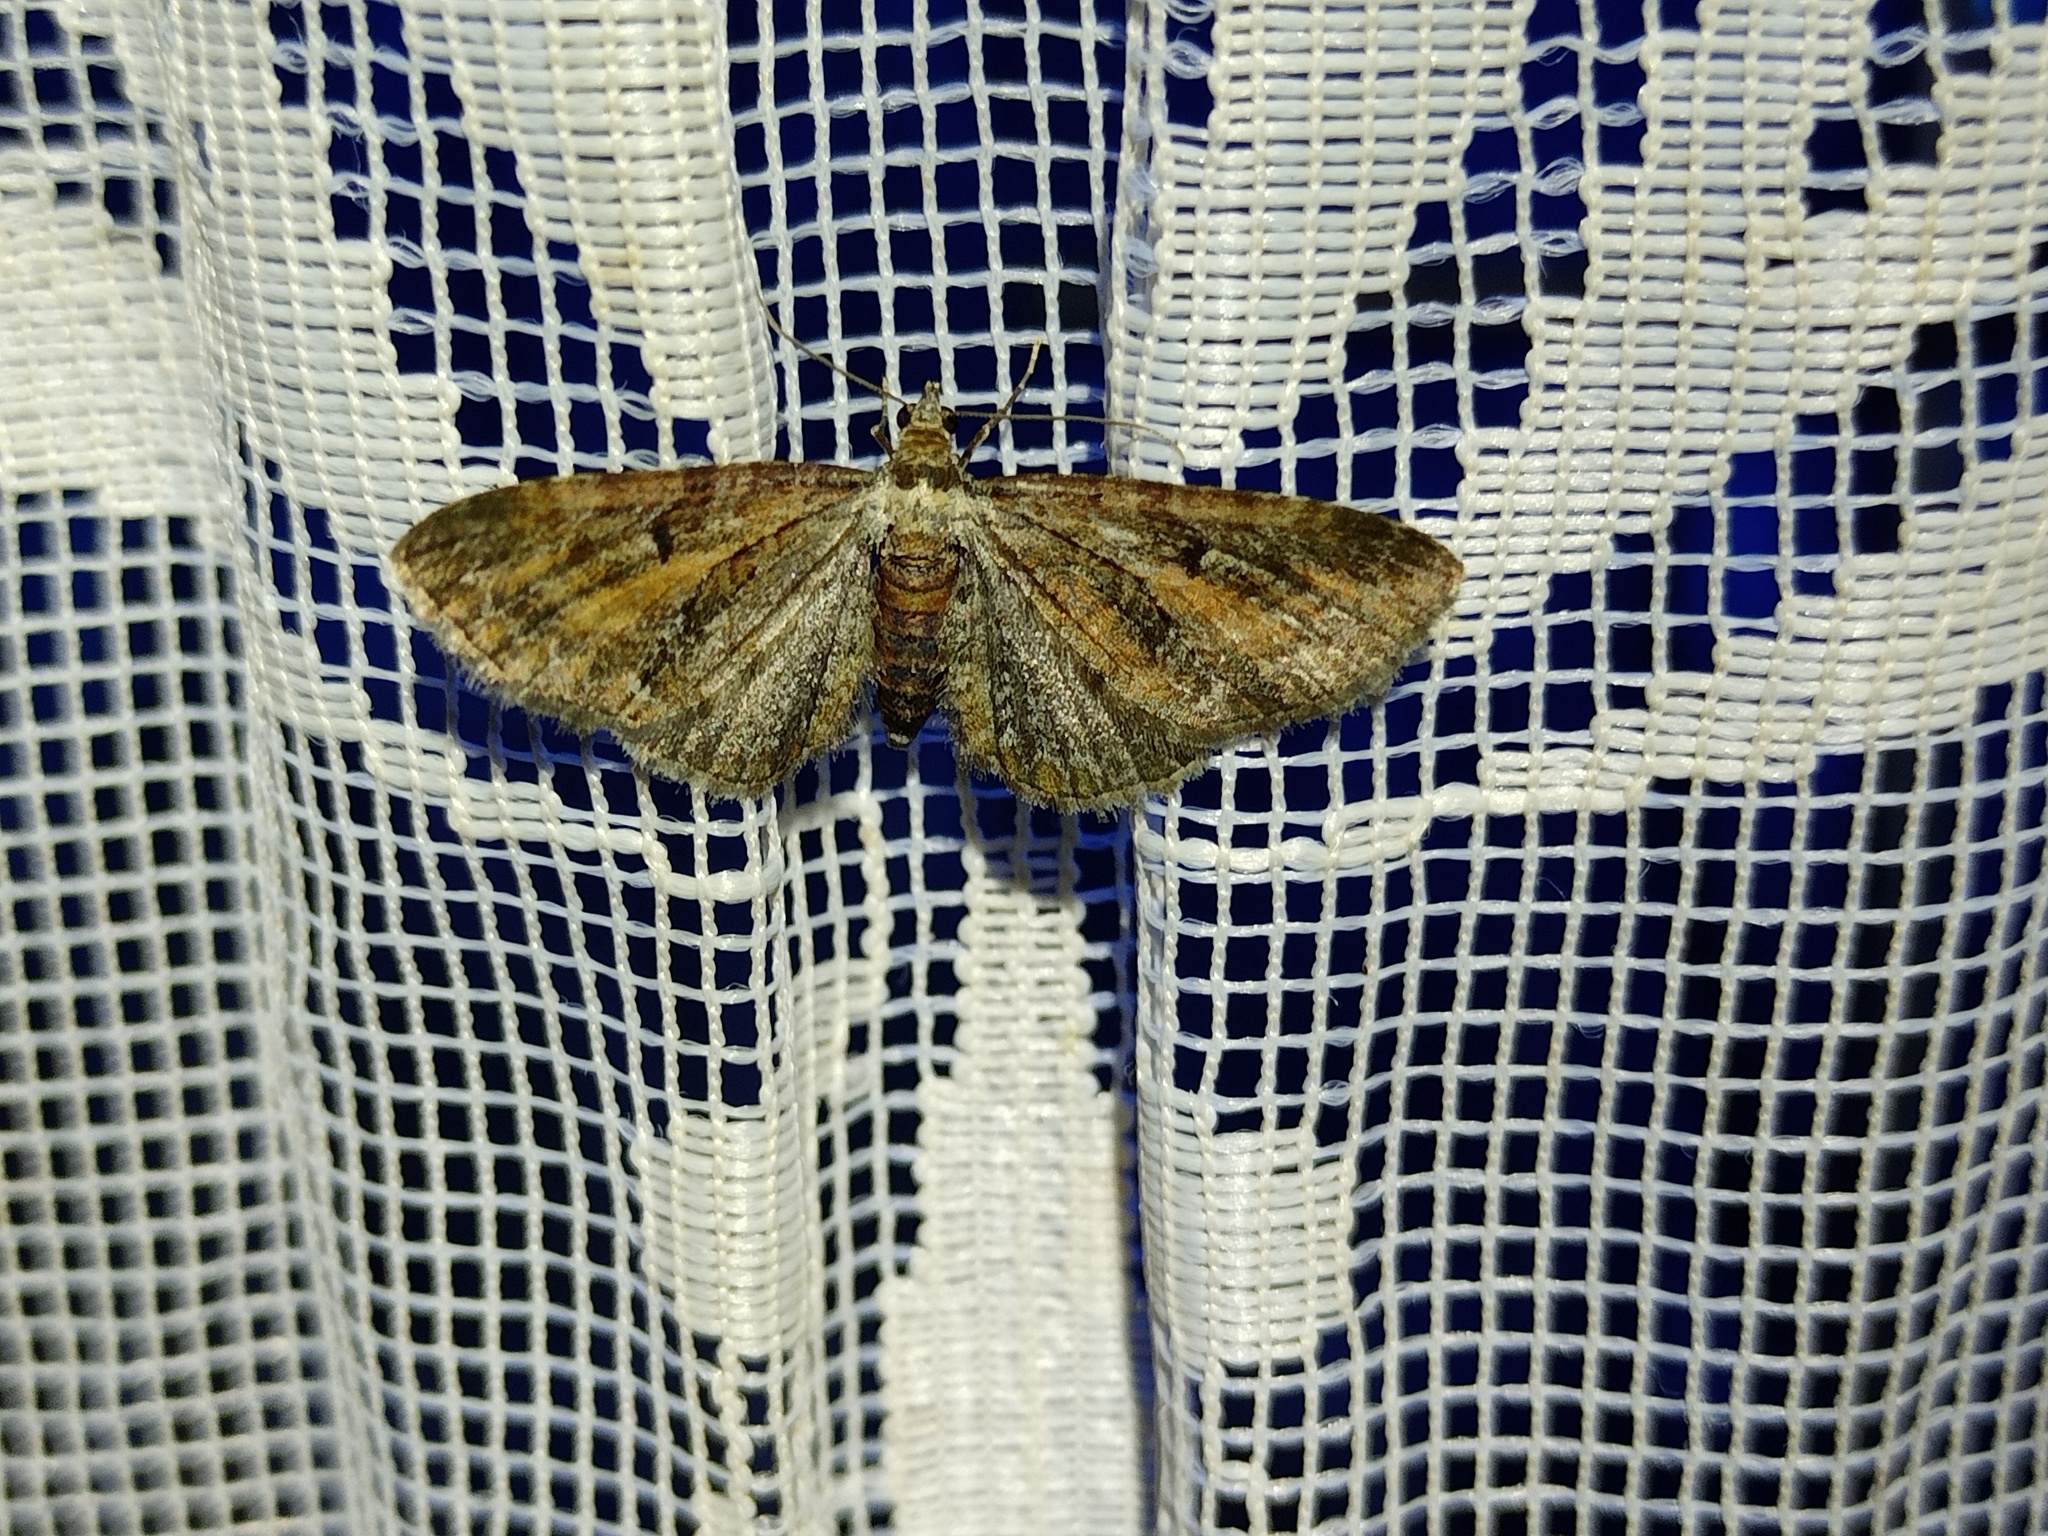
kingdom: Animalia
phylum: Arthropoda
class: Insecta
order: Lepidoptera
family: Geometridae
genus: Eupithecia
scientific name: Eupithecia icterata
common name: Tawny speckled pug
